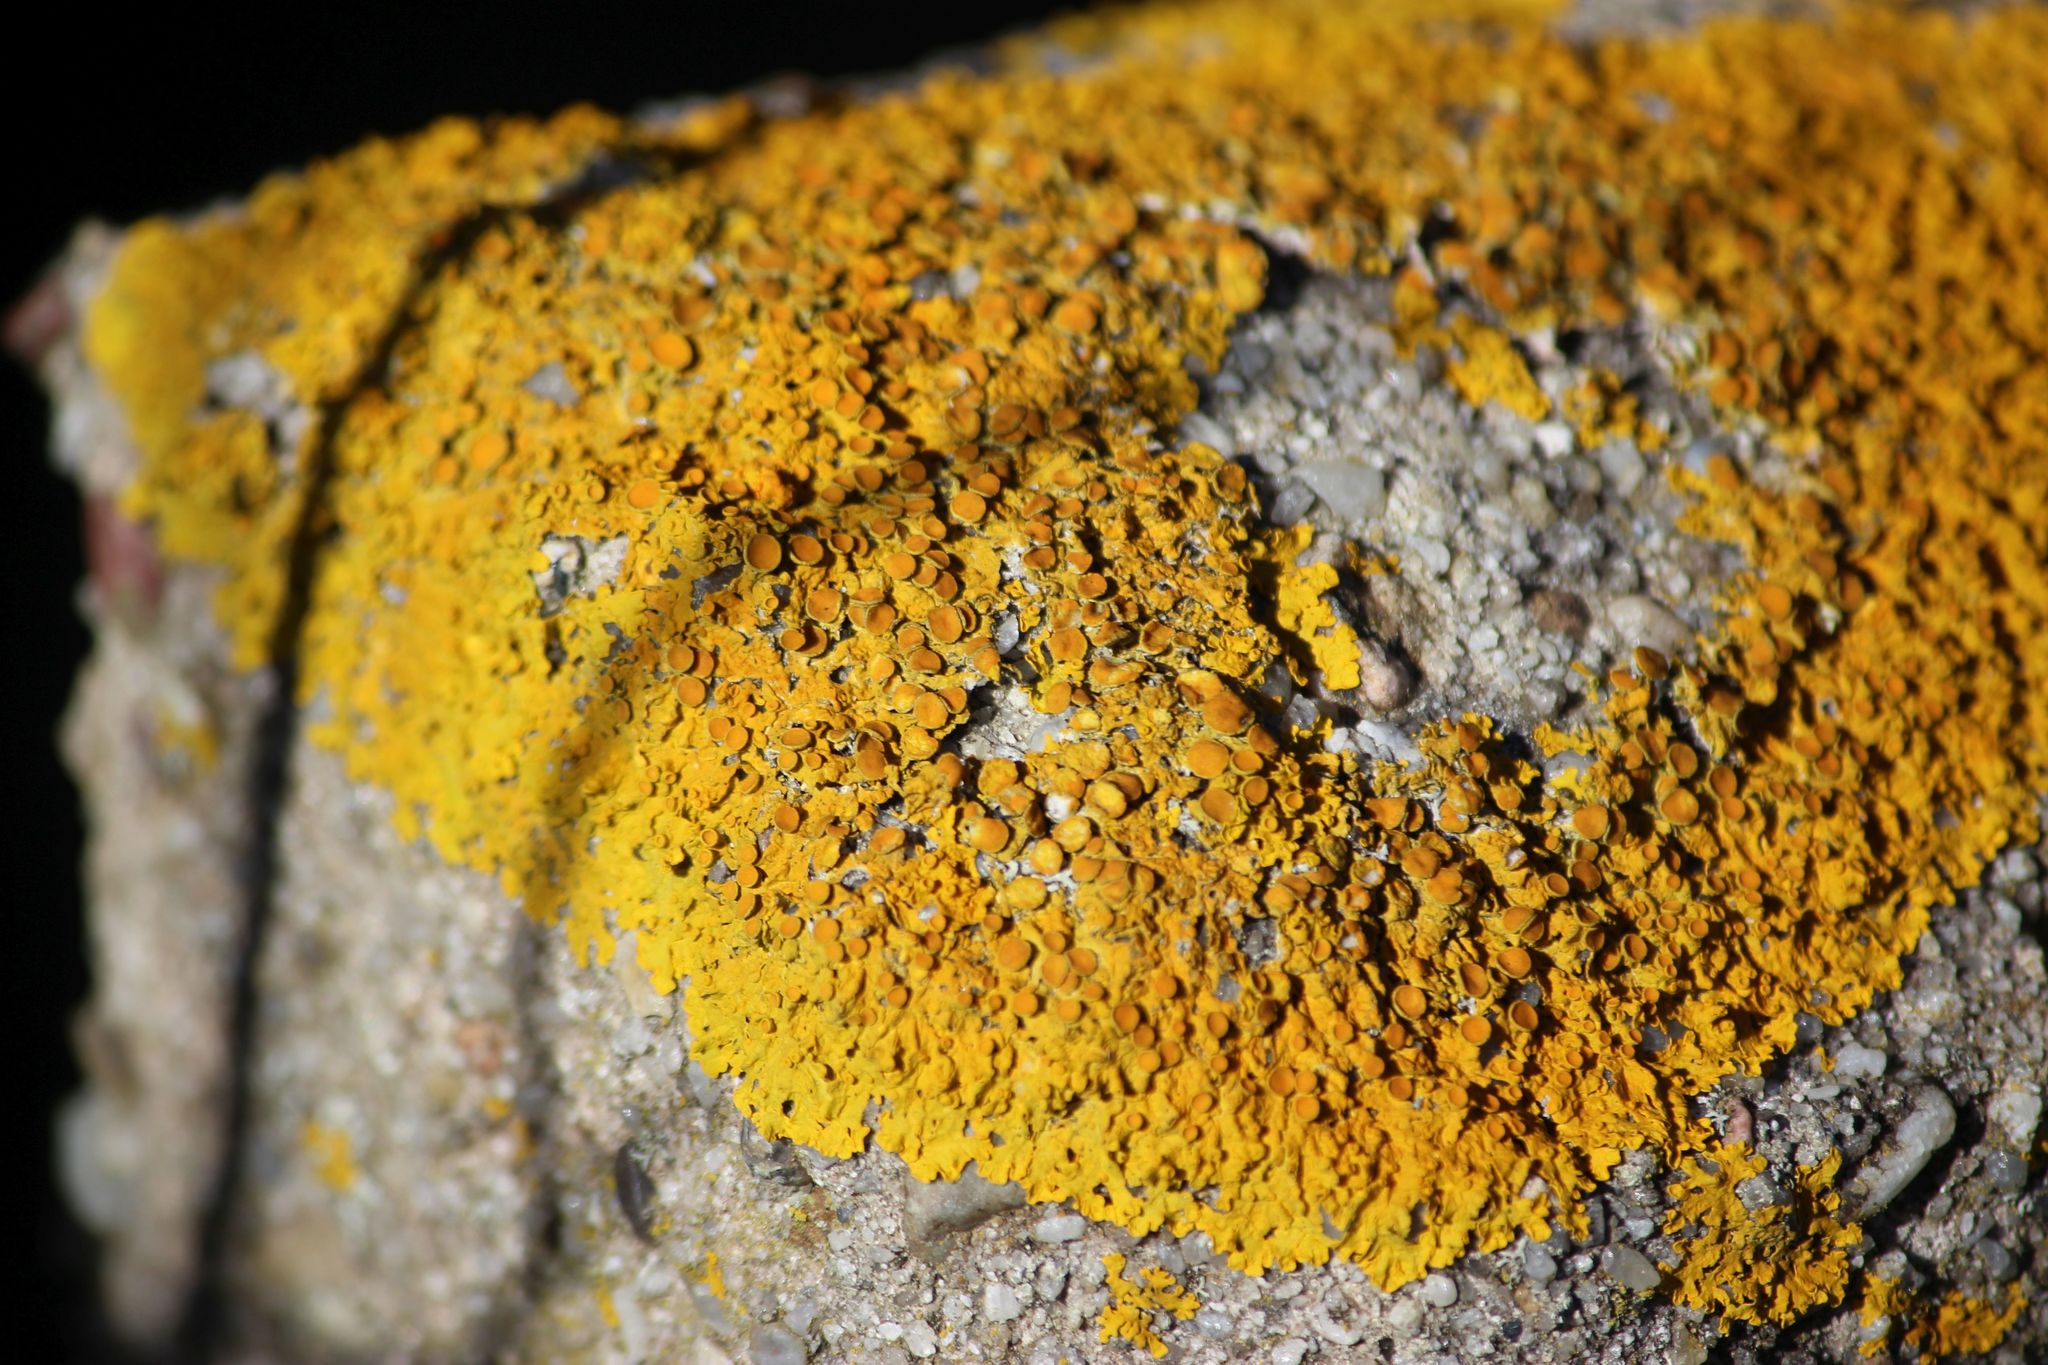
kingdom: Fungi
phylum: Ascomycota
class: Lecanoromycetes
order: Teloschistales
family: Teloschistaceae
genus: Xanthoria
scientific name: Xanthoria parietina
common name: Common orange lichen
